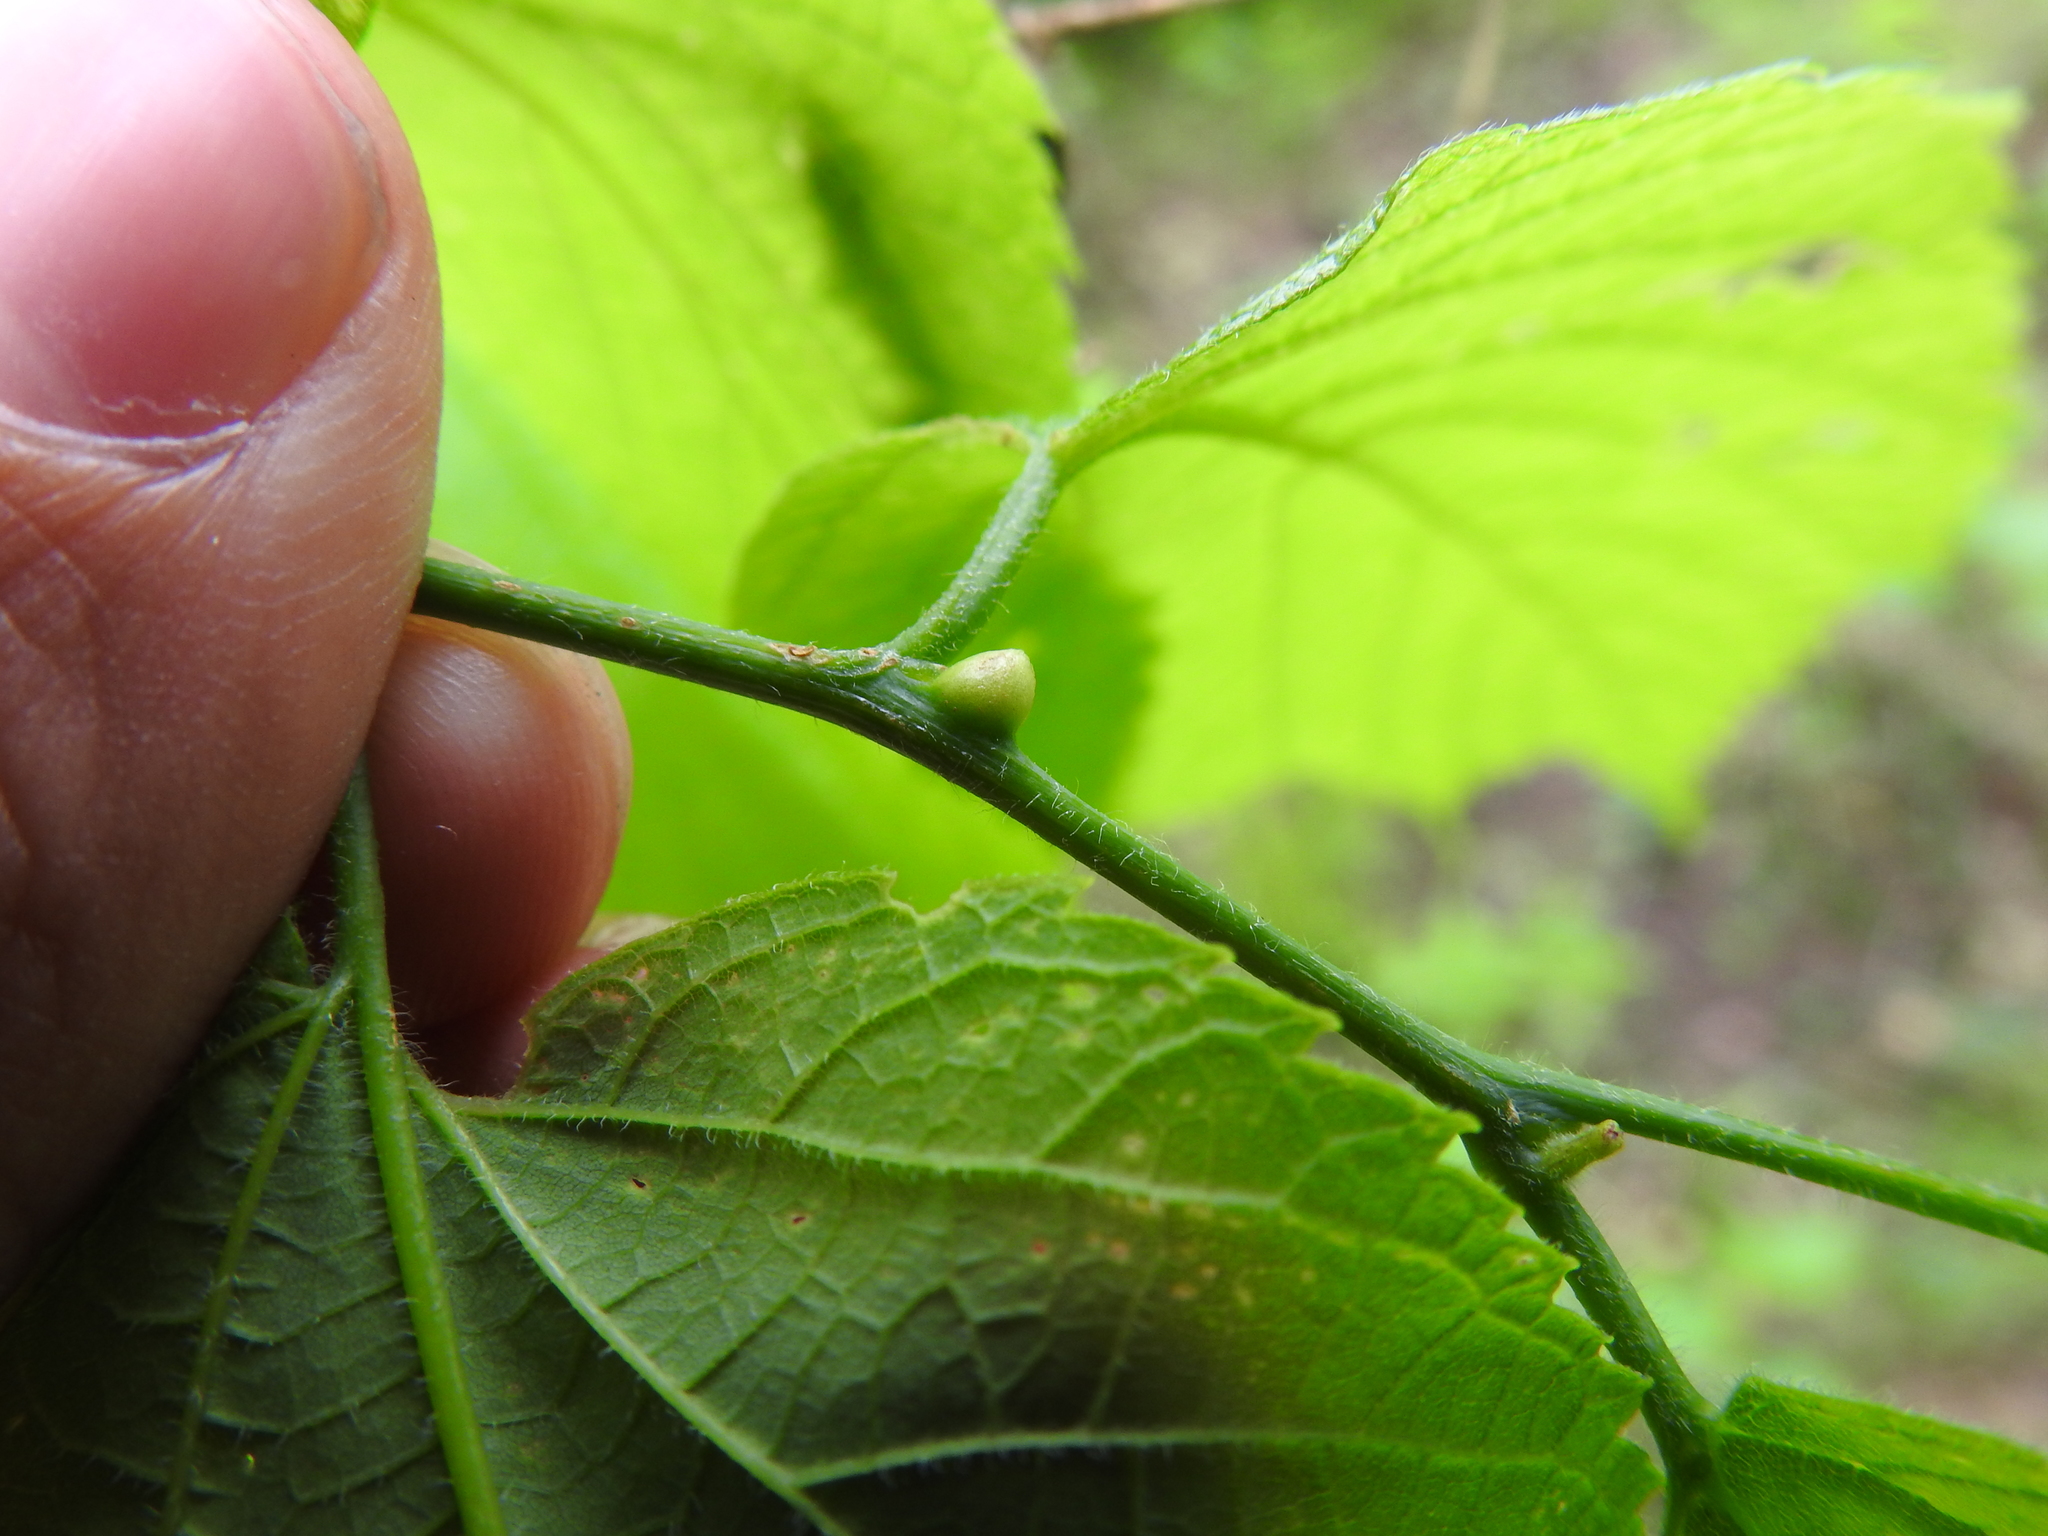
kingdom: Animalia
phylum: Arthropoda
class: Insecta
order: Diptera
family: Cecidomyiidae
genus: Celticecis
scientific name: Celticecis expulsa
